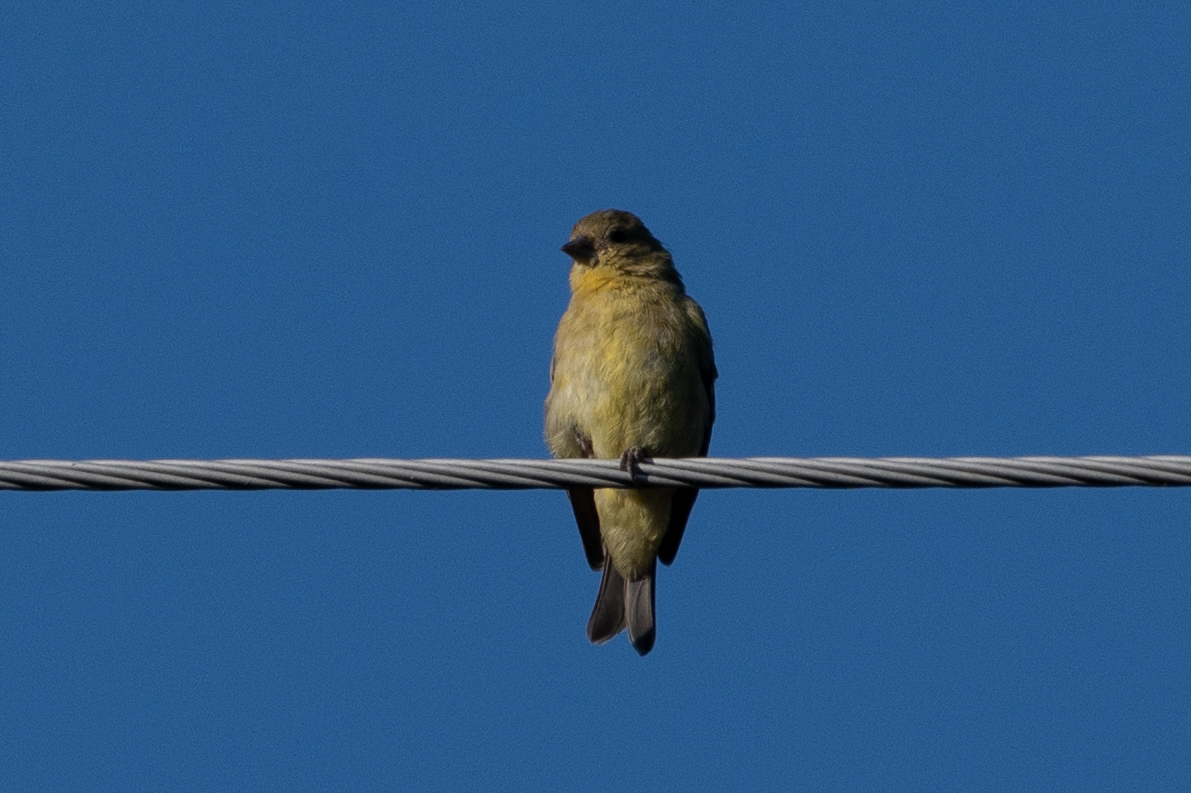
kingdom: Animalia
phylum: Chordata
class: Aves
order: Passeriformes
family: Fringillidae
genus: Spinus
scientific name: Spinus psaltria
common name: Lesser goldfinch
